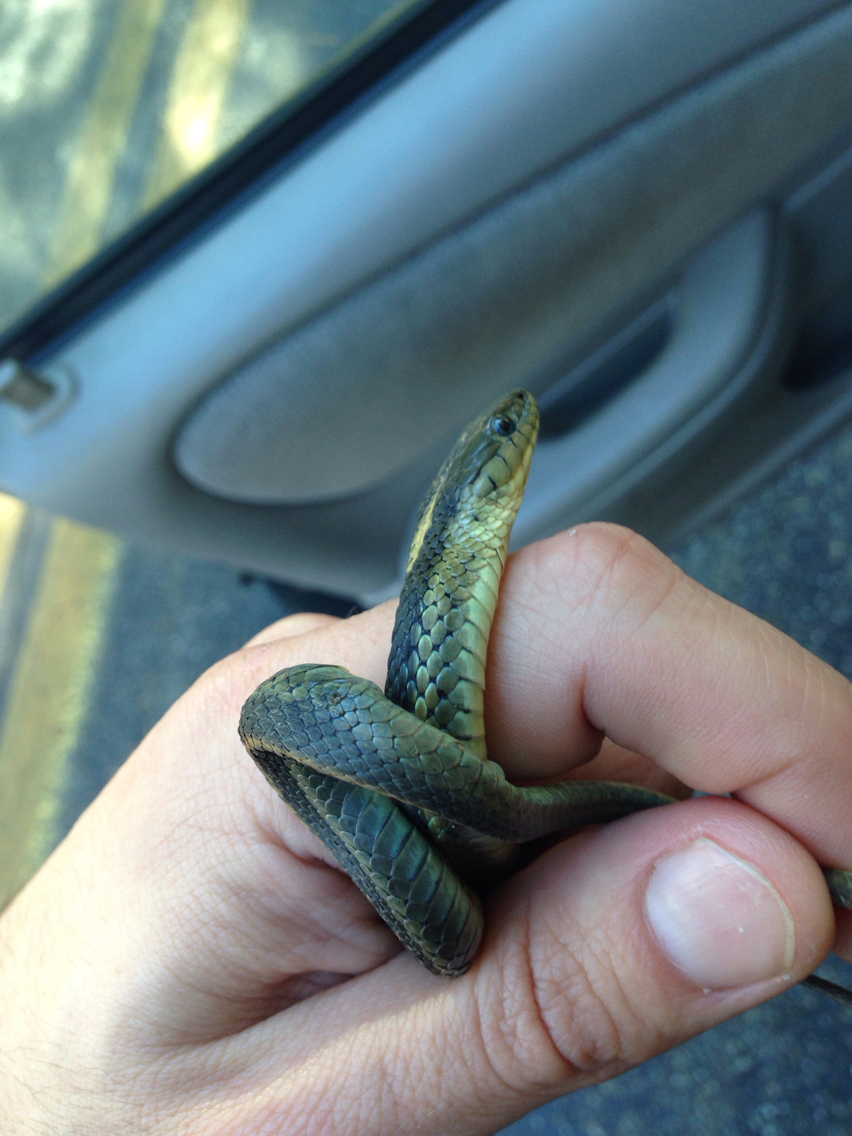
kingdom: Animalia
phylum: Chordata
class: Squamata
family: Colubridae
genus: Thamnophis
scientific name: Thamnophis atratus
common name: Pacific coast aquatic garter snake
